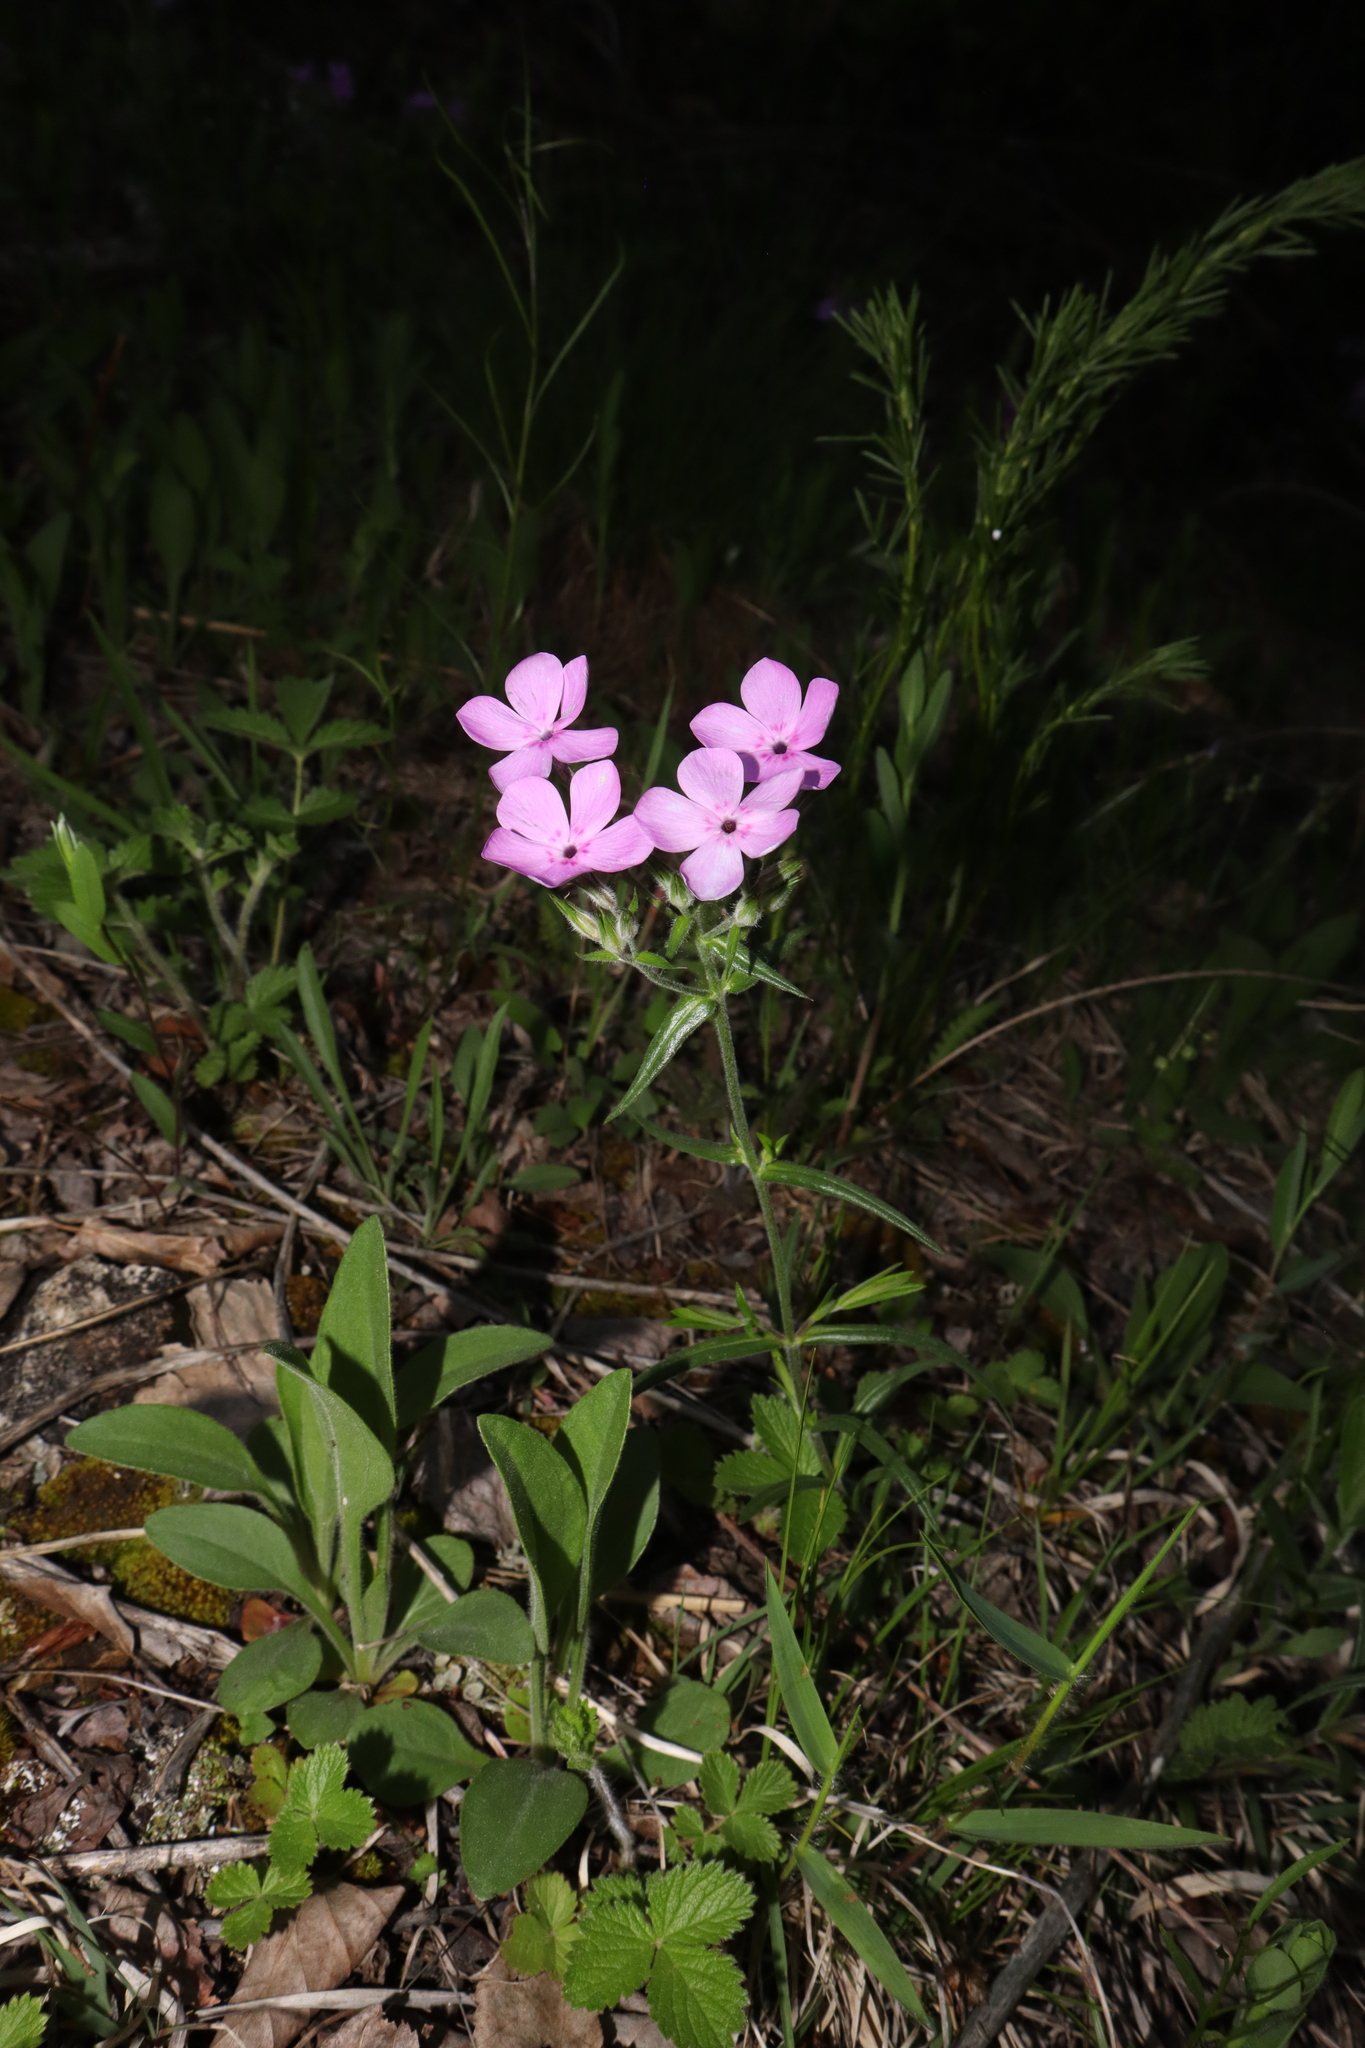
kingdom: Plantae
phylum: Tracheophyta
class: Magnoliopsida
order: Ericales
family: Polemoniaceae
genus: Phlox
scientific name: Phlox pilosa
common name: Prairie phlox
